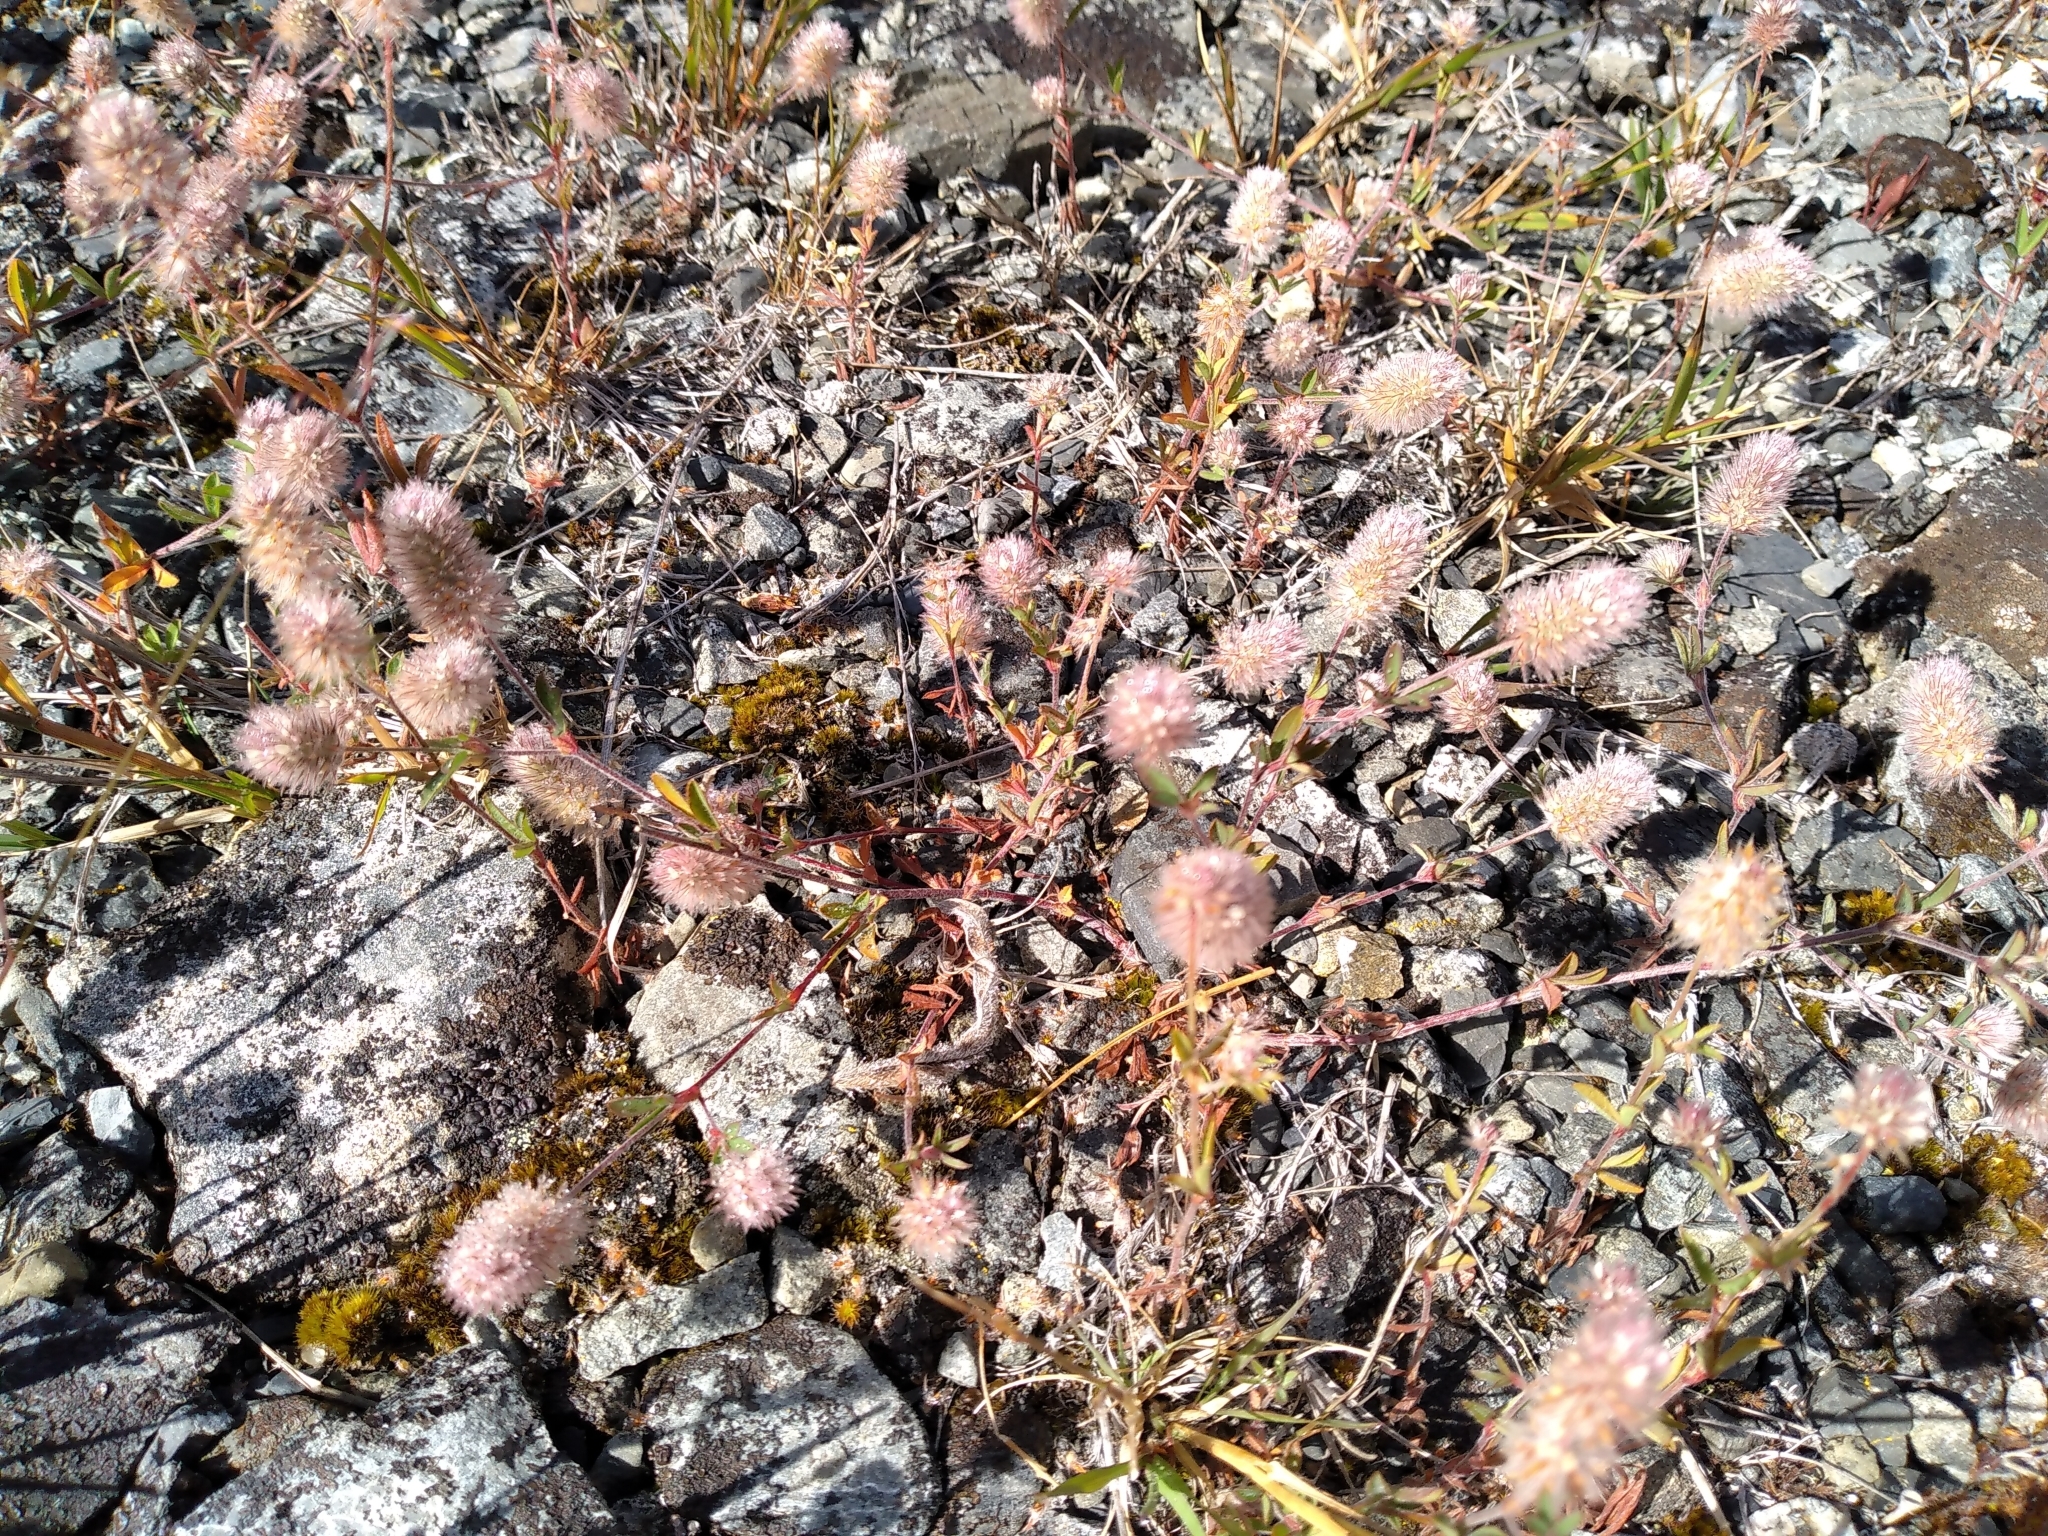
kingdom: Plantae
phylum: Tracheophyta
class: Magnoliopsida
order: Fabales
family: Fabaceae
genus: Trifolium
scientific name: Trifolium arvense
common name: Hare's-foot clover
